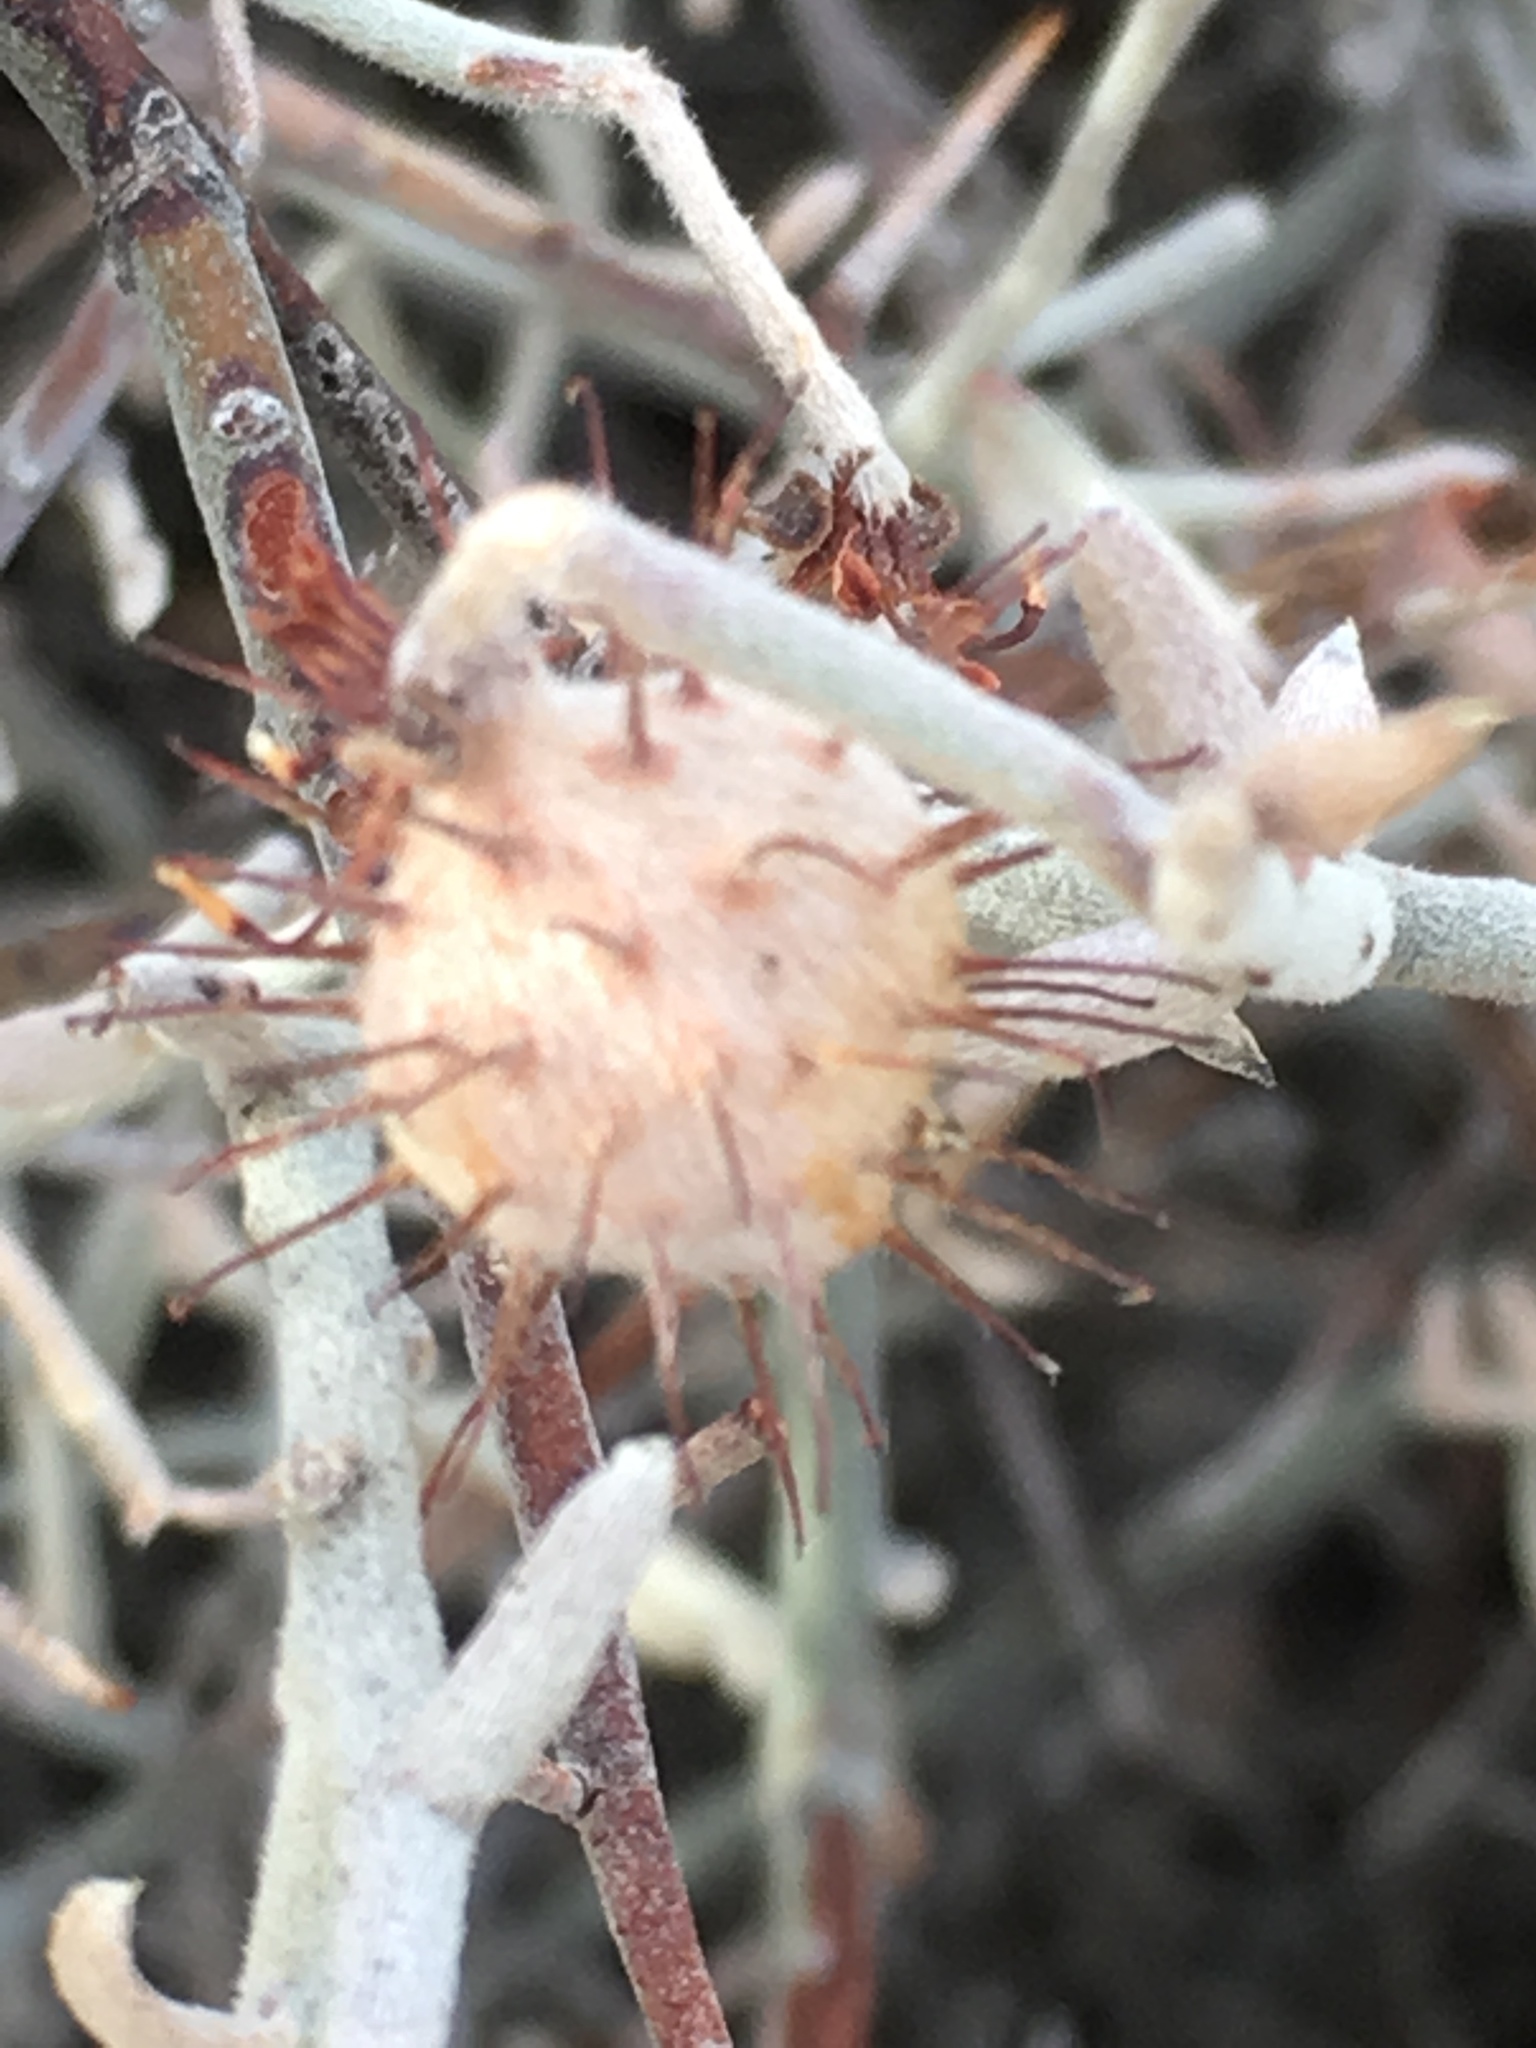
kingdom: Plantae
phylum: Tracheophyta
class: Magnoliopsida
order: Zygophyllales
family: Krameriaceae
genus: Krameria
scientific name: Krameria bicolor
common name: White ratany
